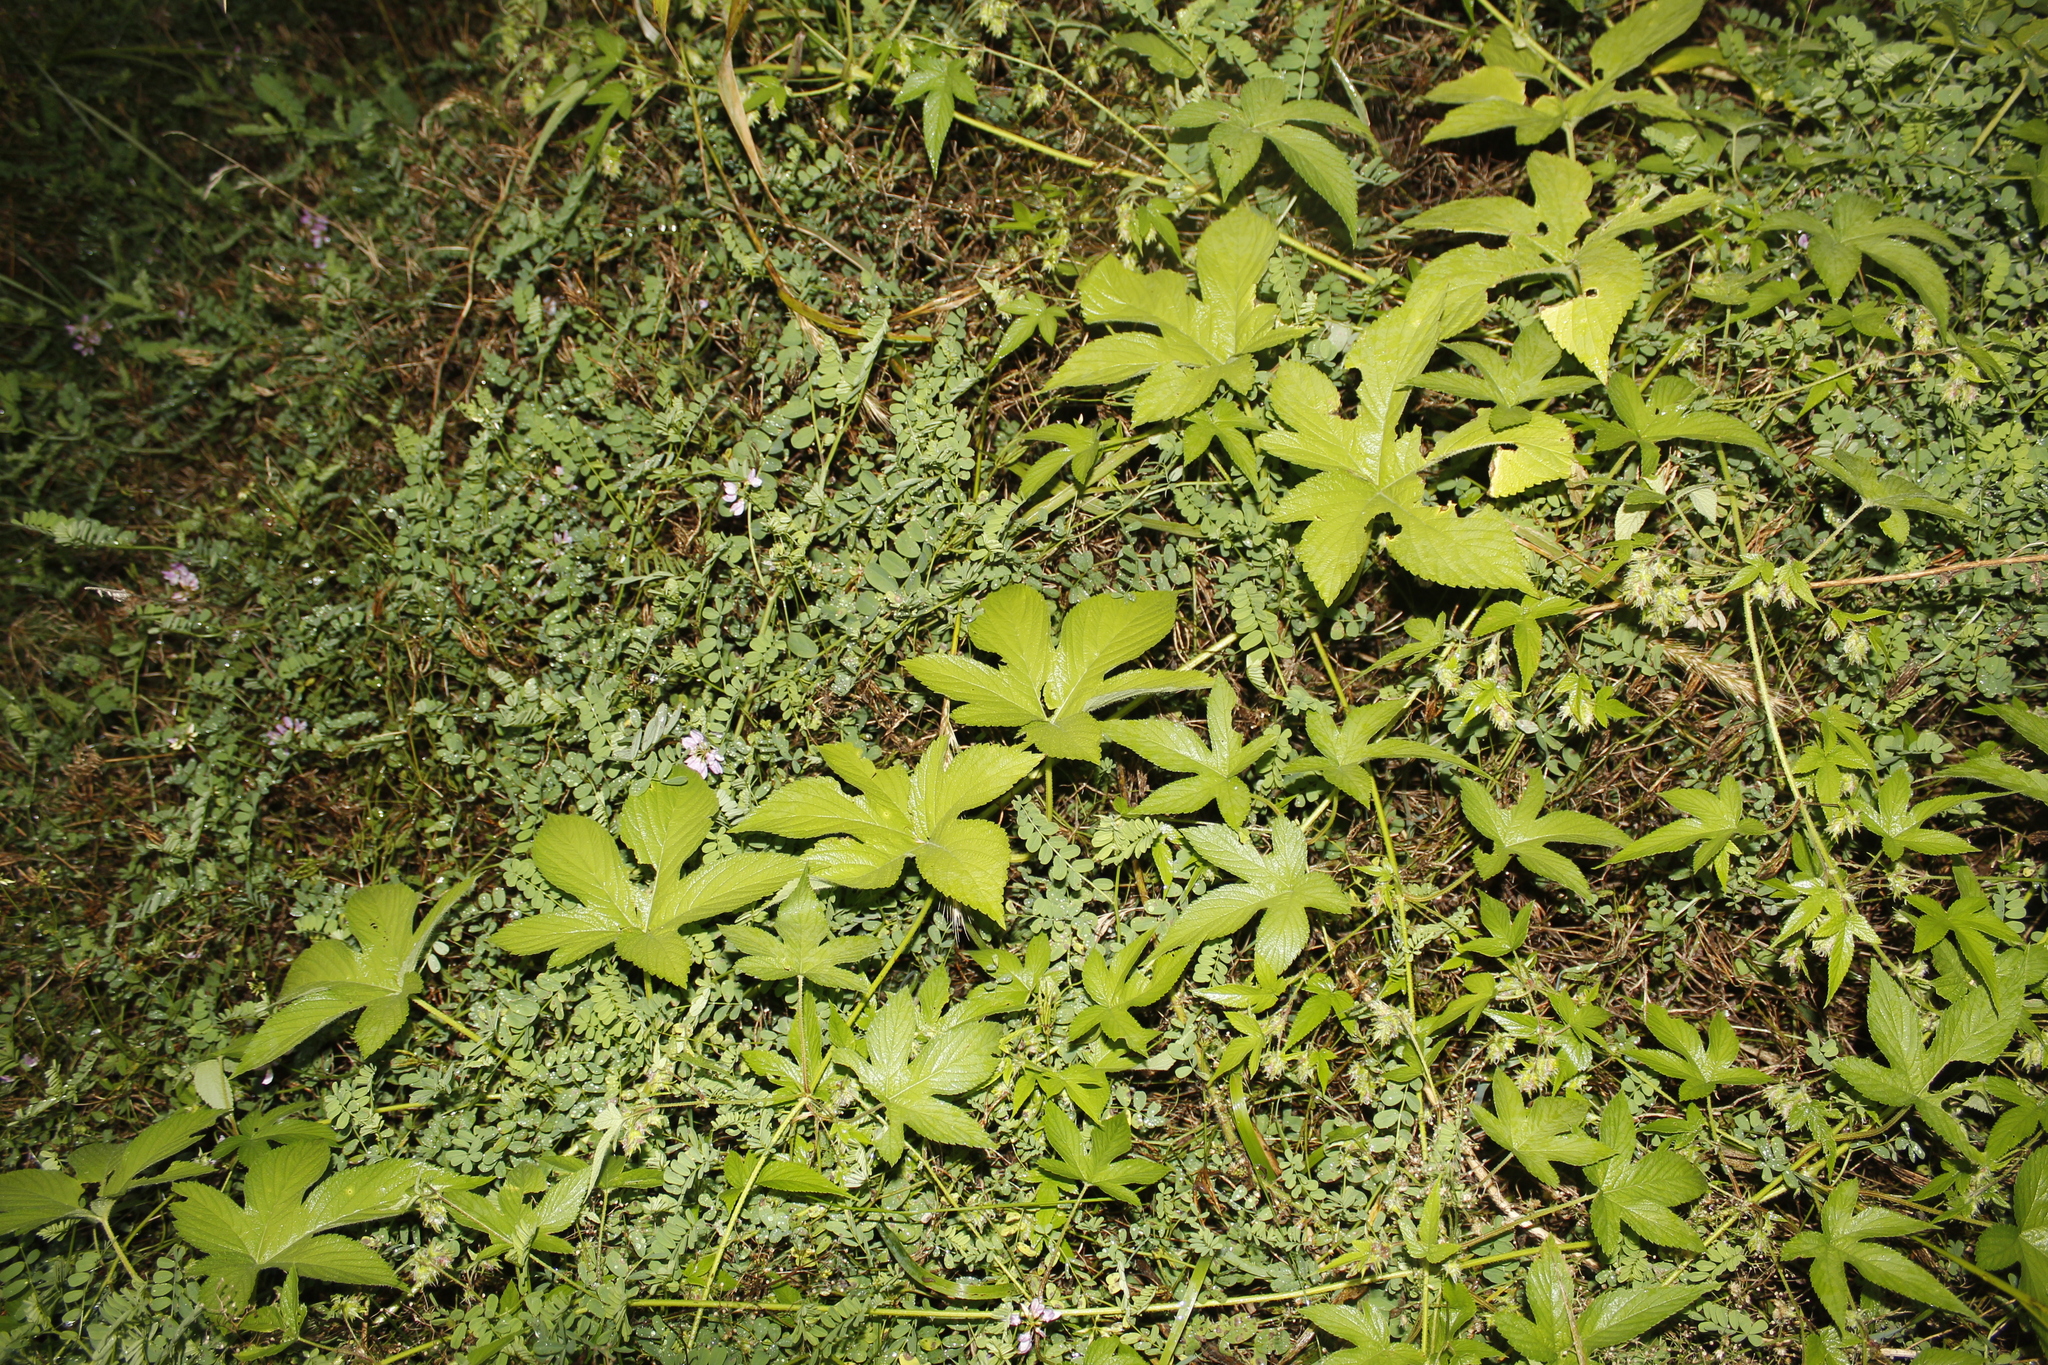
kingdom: Plantae
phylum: Tracheophyta
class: Magnoliopsida
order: Rosales
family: Cannabaceae
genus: Humulus
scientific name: Humulus scandens
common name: Japanese hop
